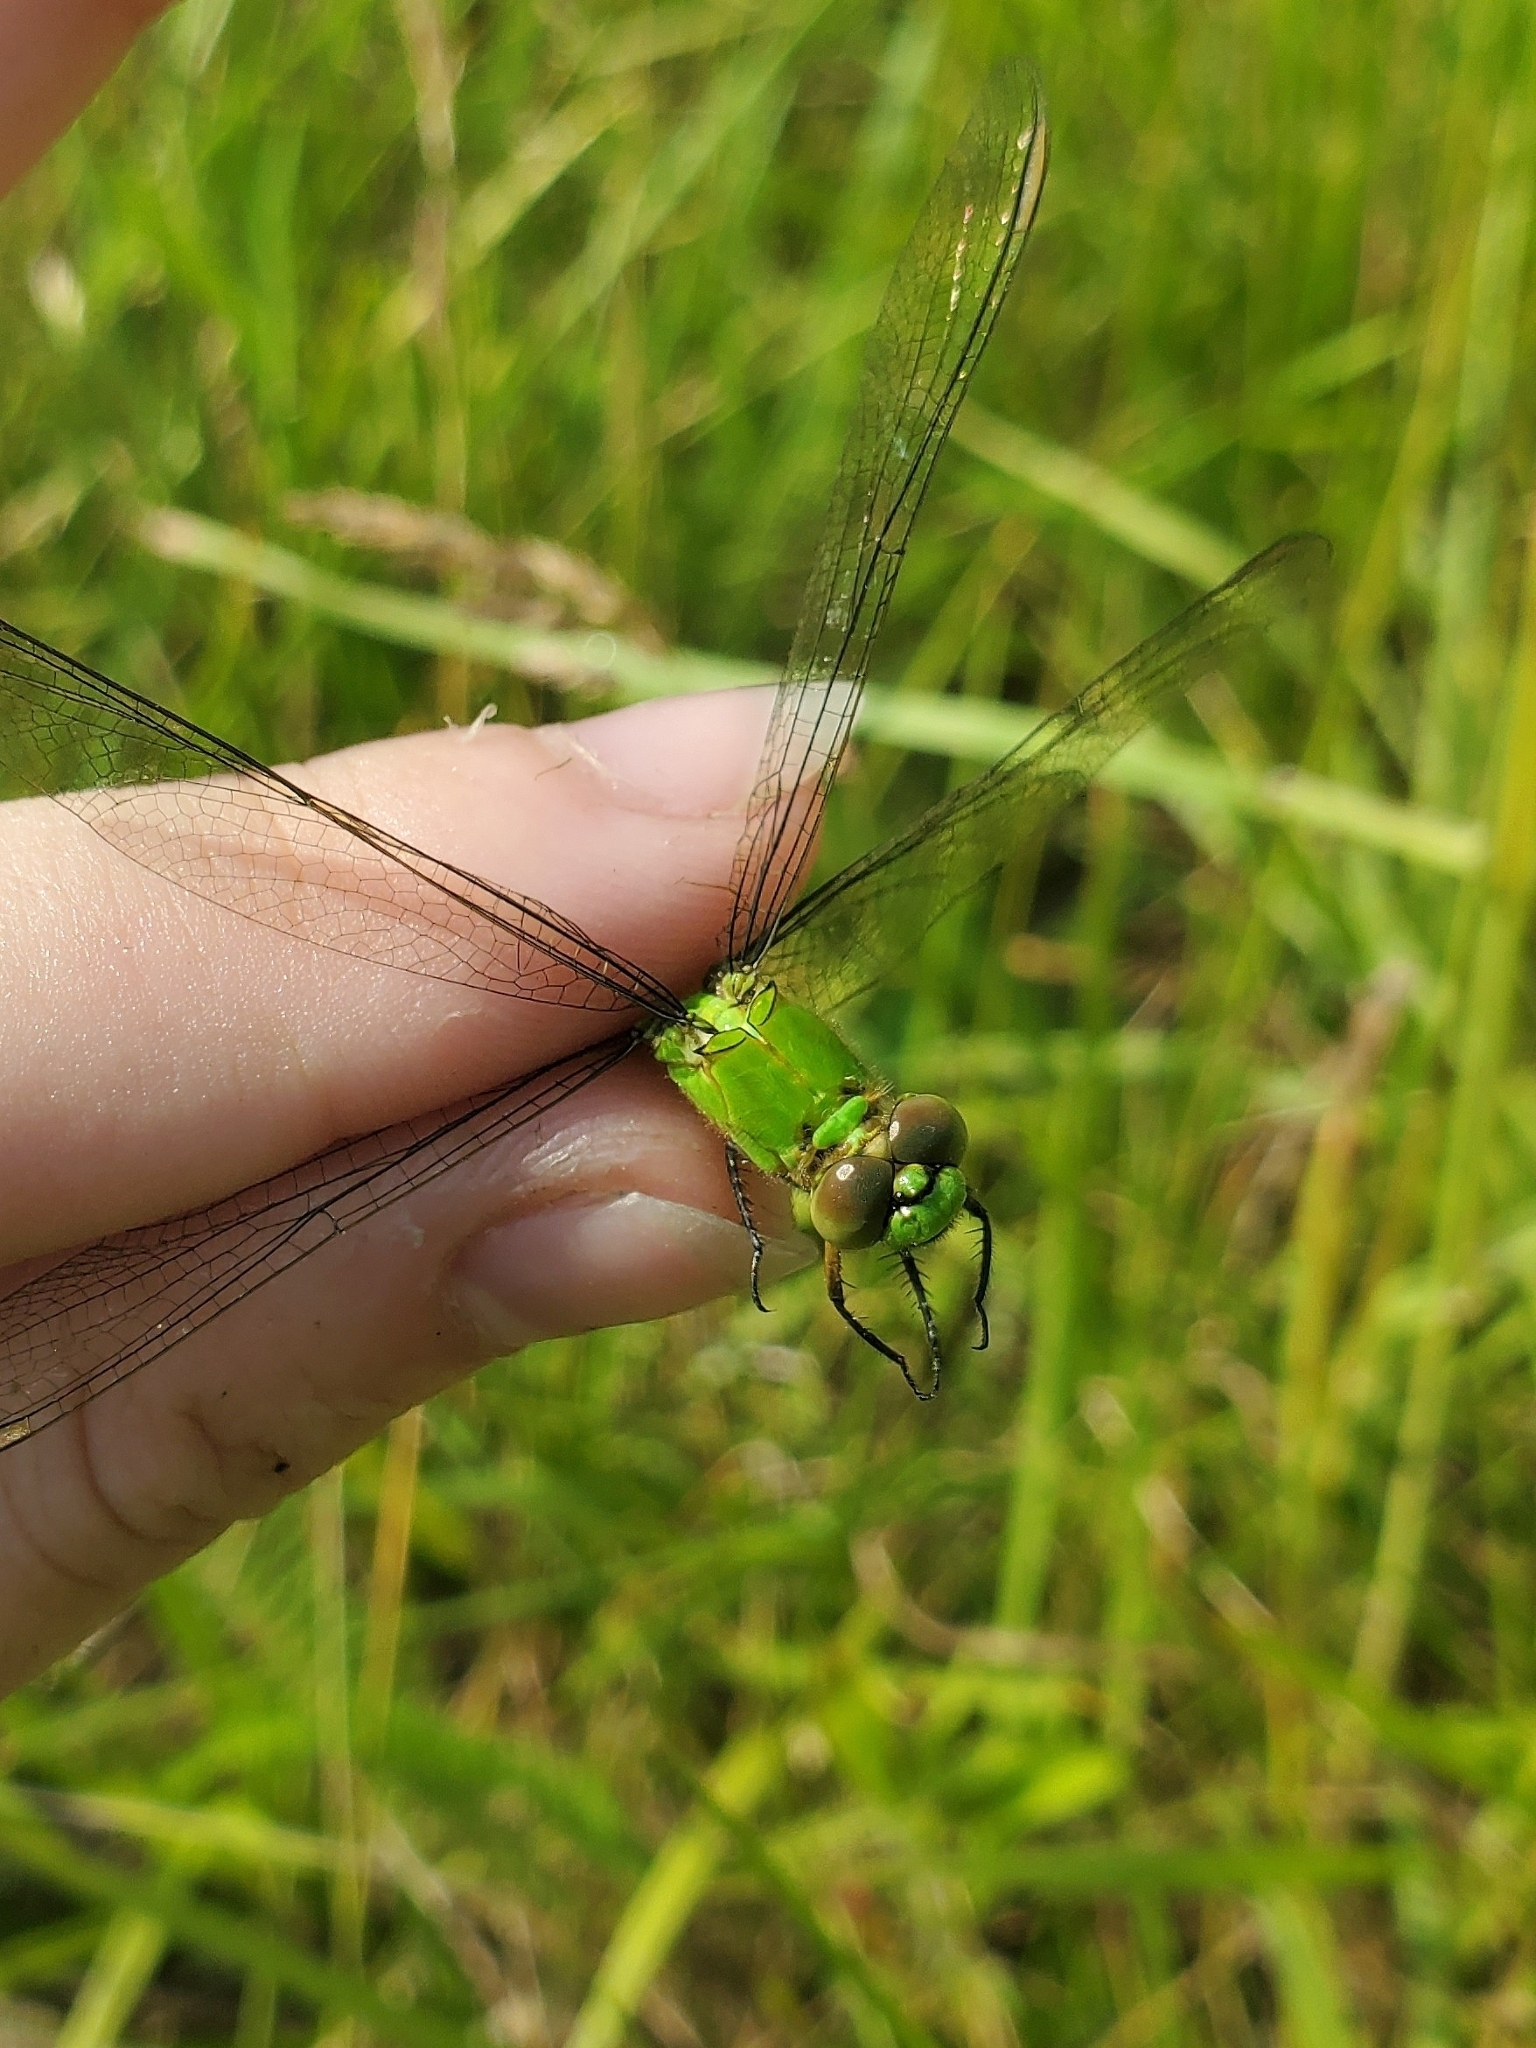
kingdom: Animalia
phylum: Arthropoda
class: Insecta
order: Odonata
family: Libellulidae
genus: Erythemis
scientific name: Erythemis simplicicollis
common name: Eastern pondhawk
